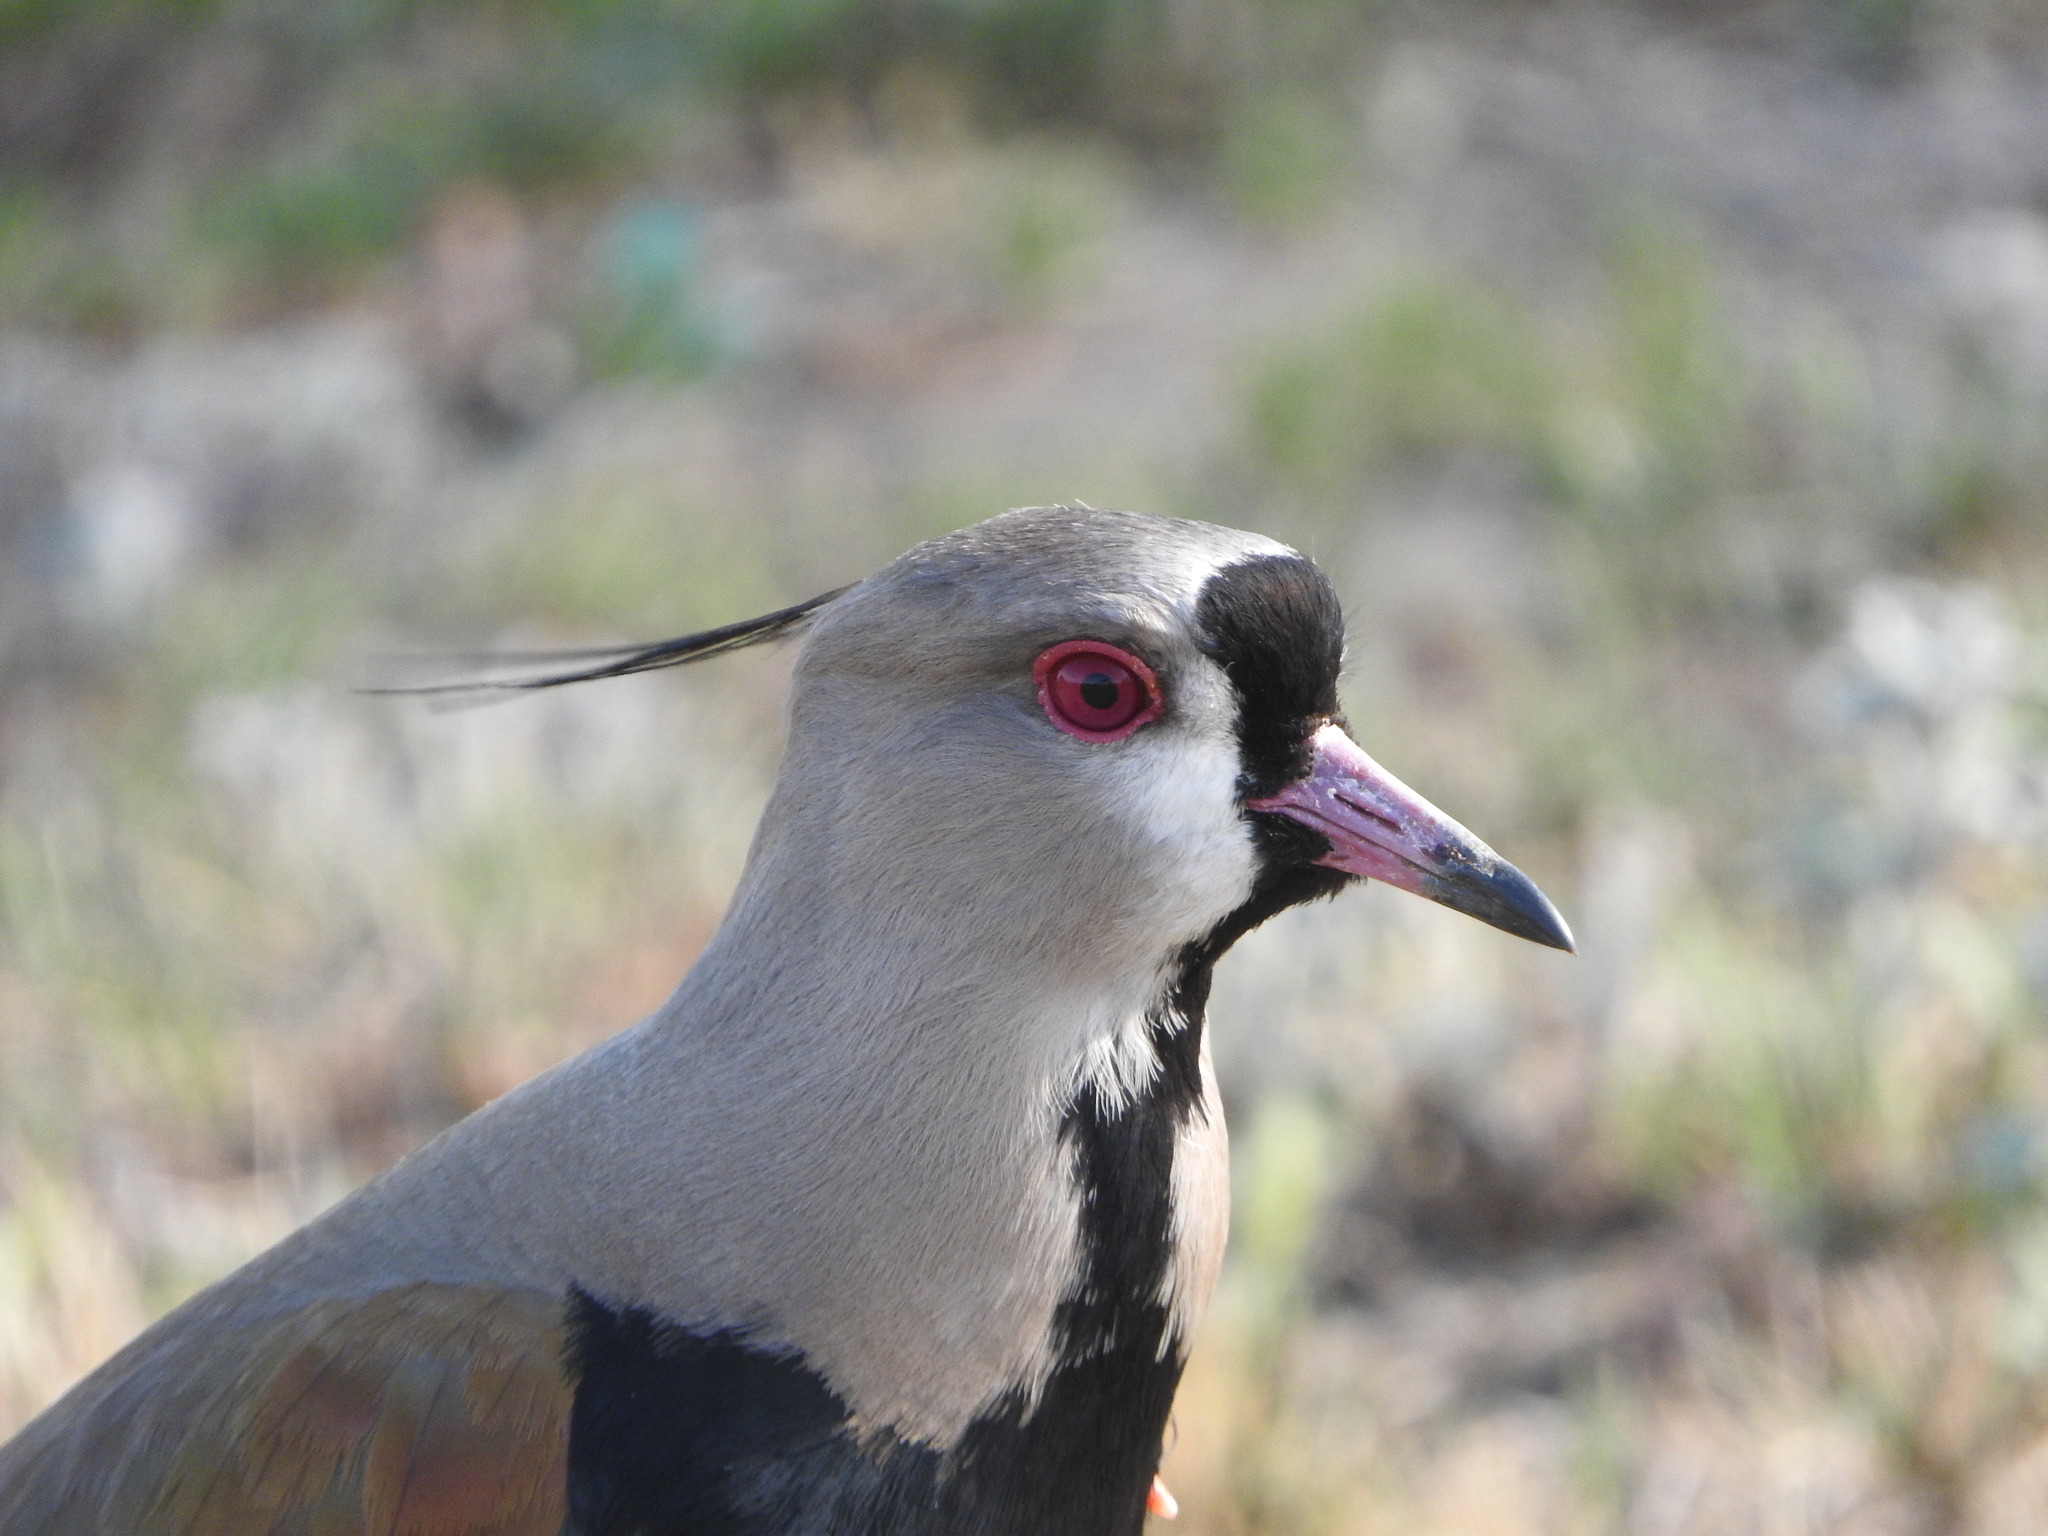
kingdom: Animalia
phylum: Chordata
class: Aves
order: Charadriiformes
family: Charadriidae
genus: Vanellus
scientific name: Vanellus chilensis
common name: Southern lapwing
